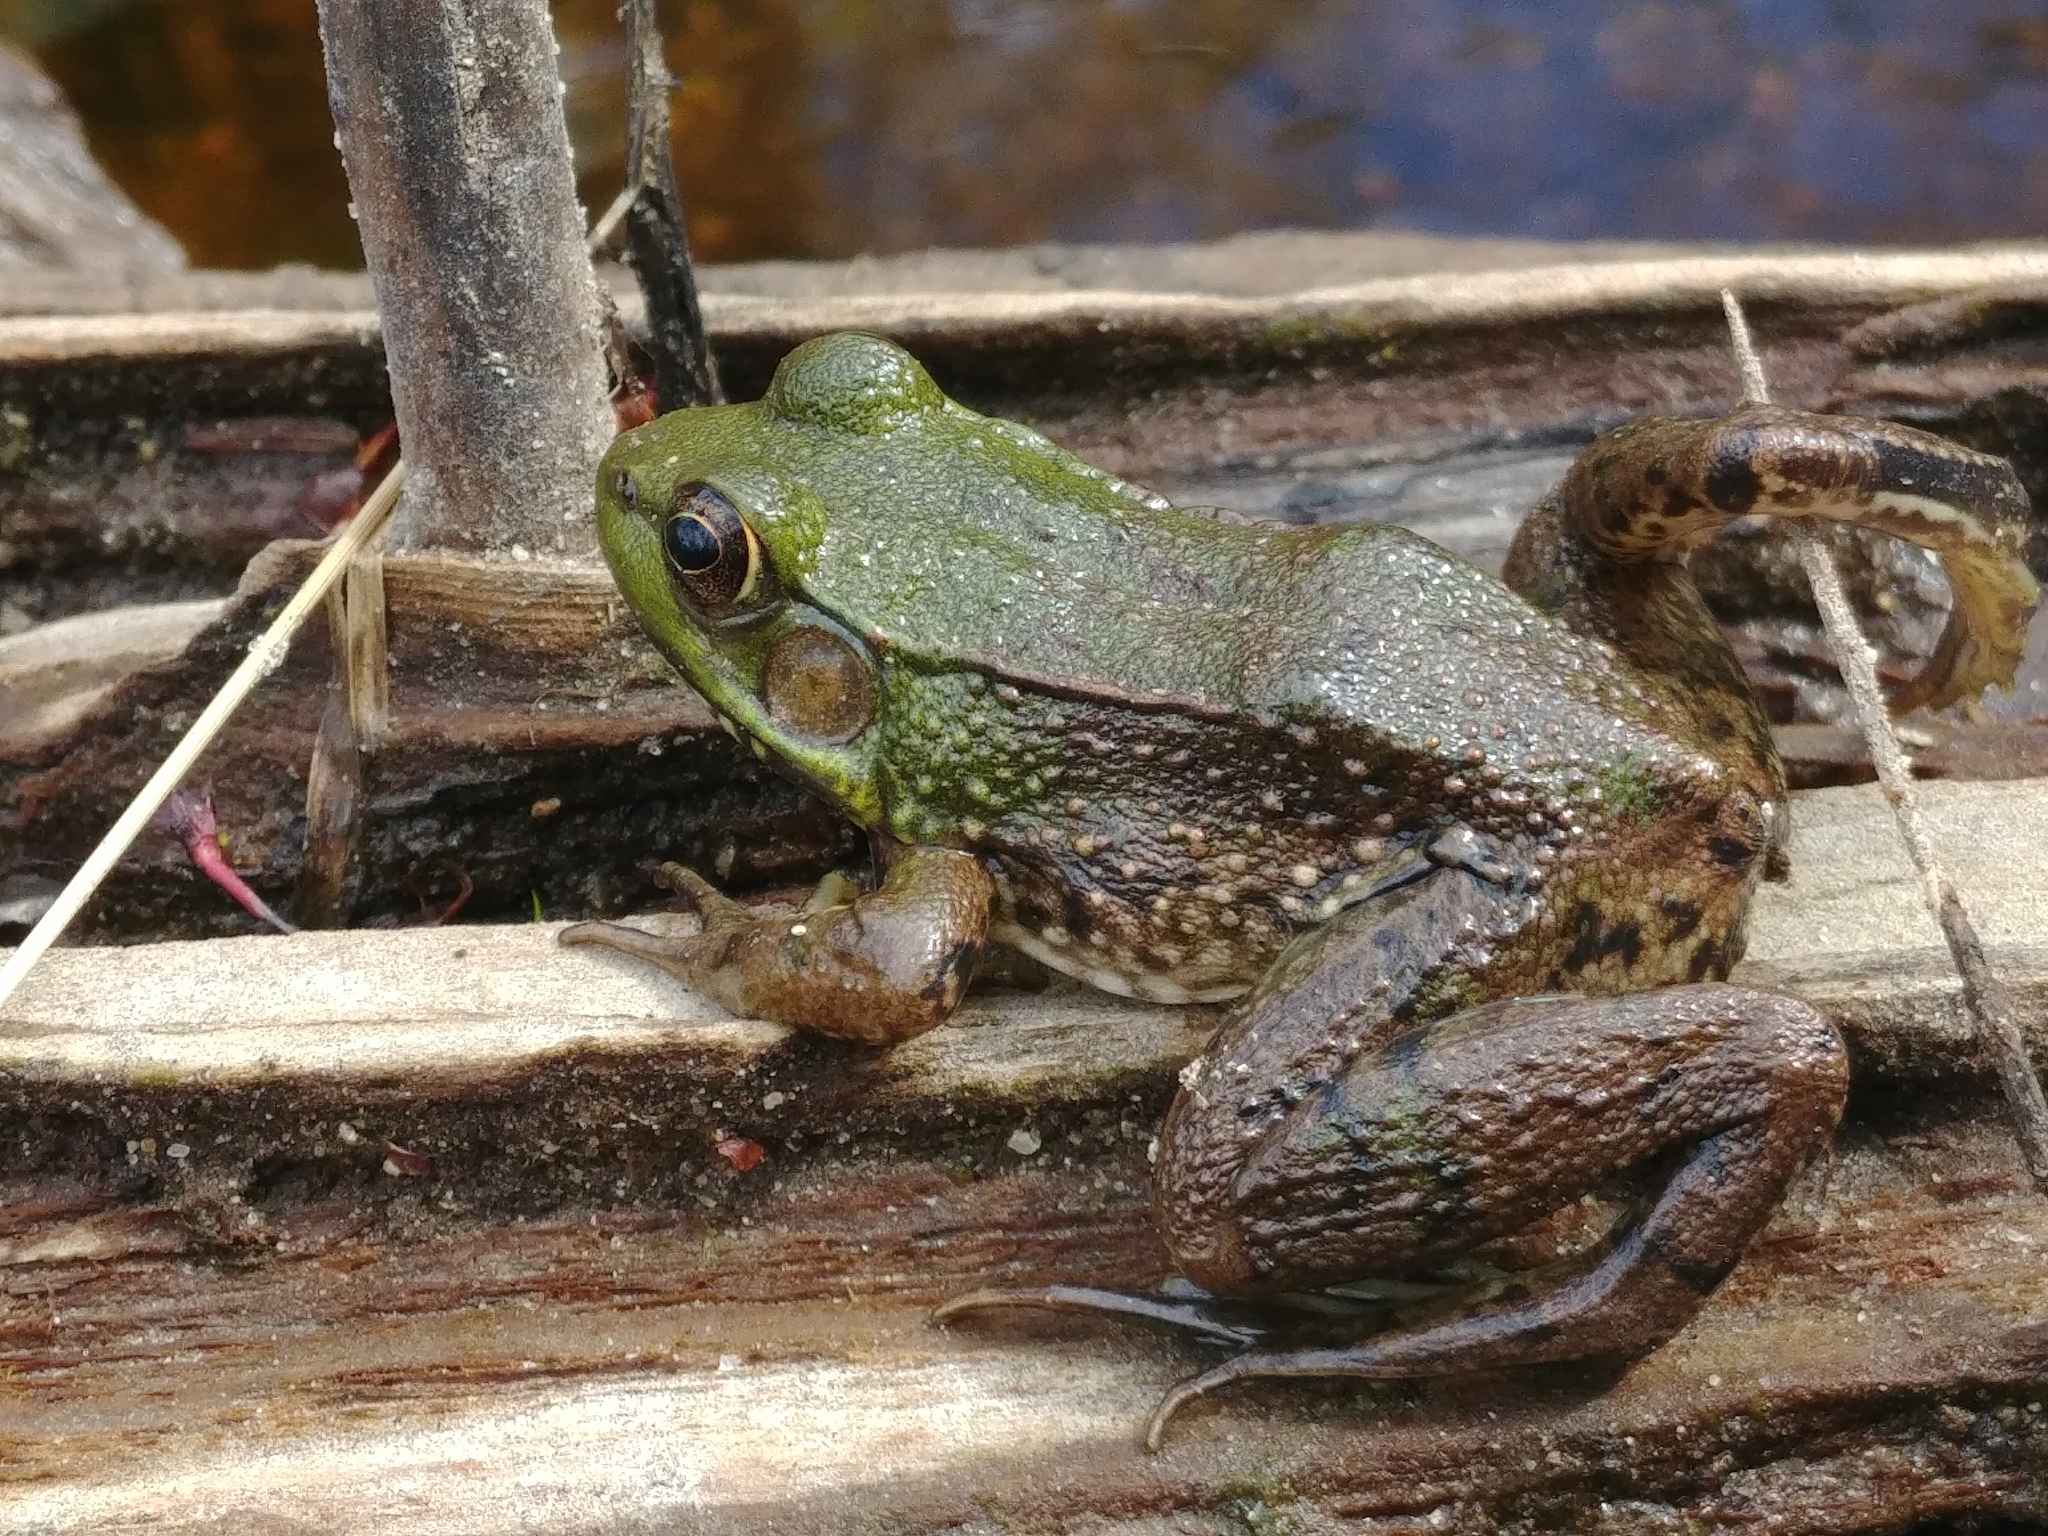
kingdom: Animalia
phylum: Chordata
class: Amphibia
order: Anura
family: Ranidae
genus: Lithobates
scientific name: Lithobates clamitans
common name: Green frog
